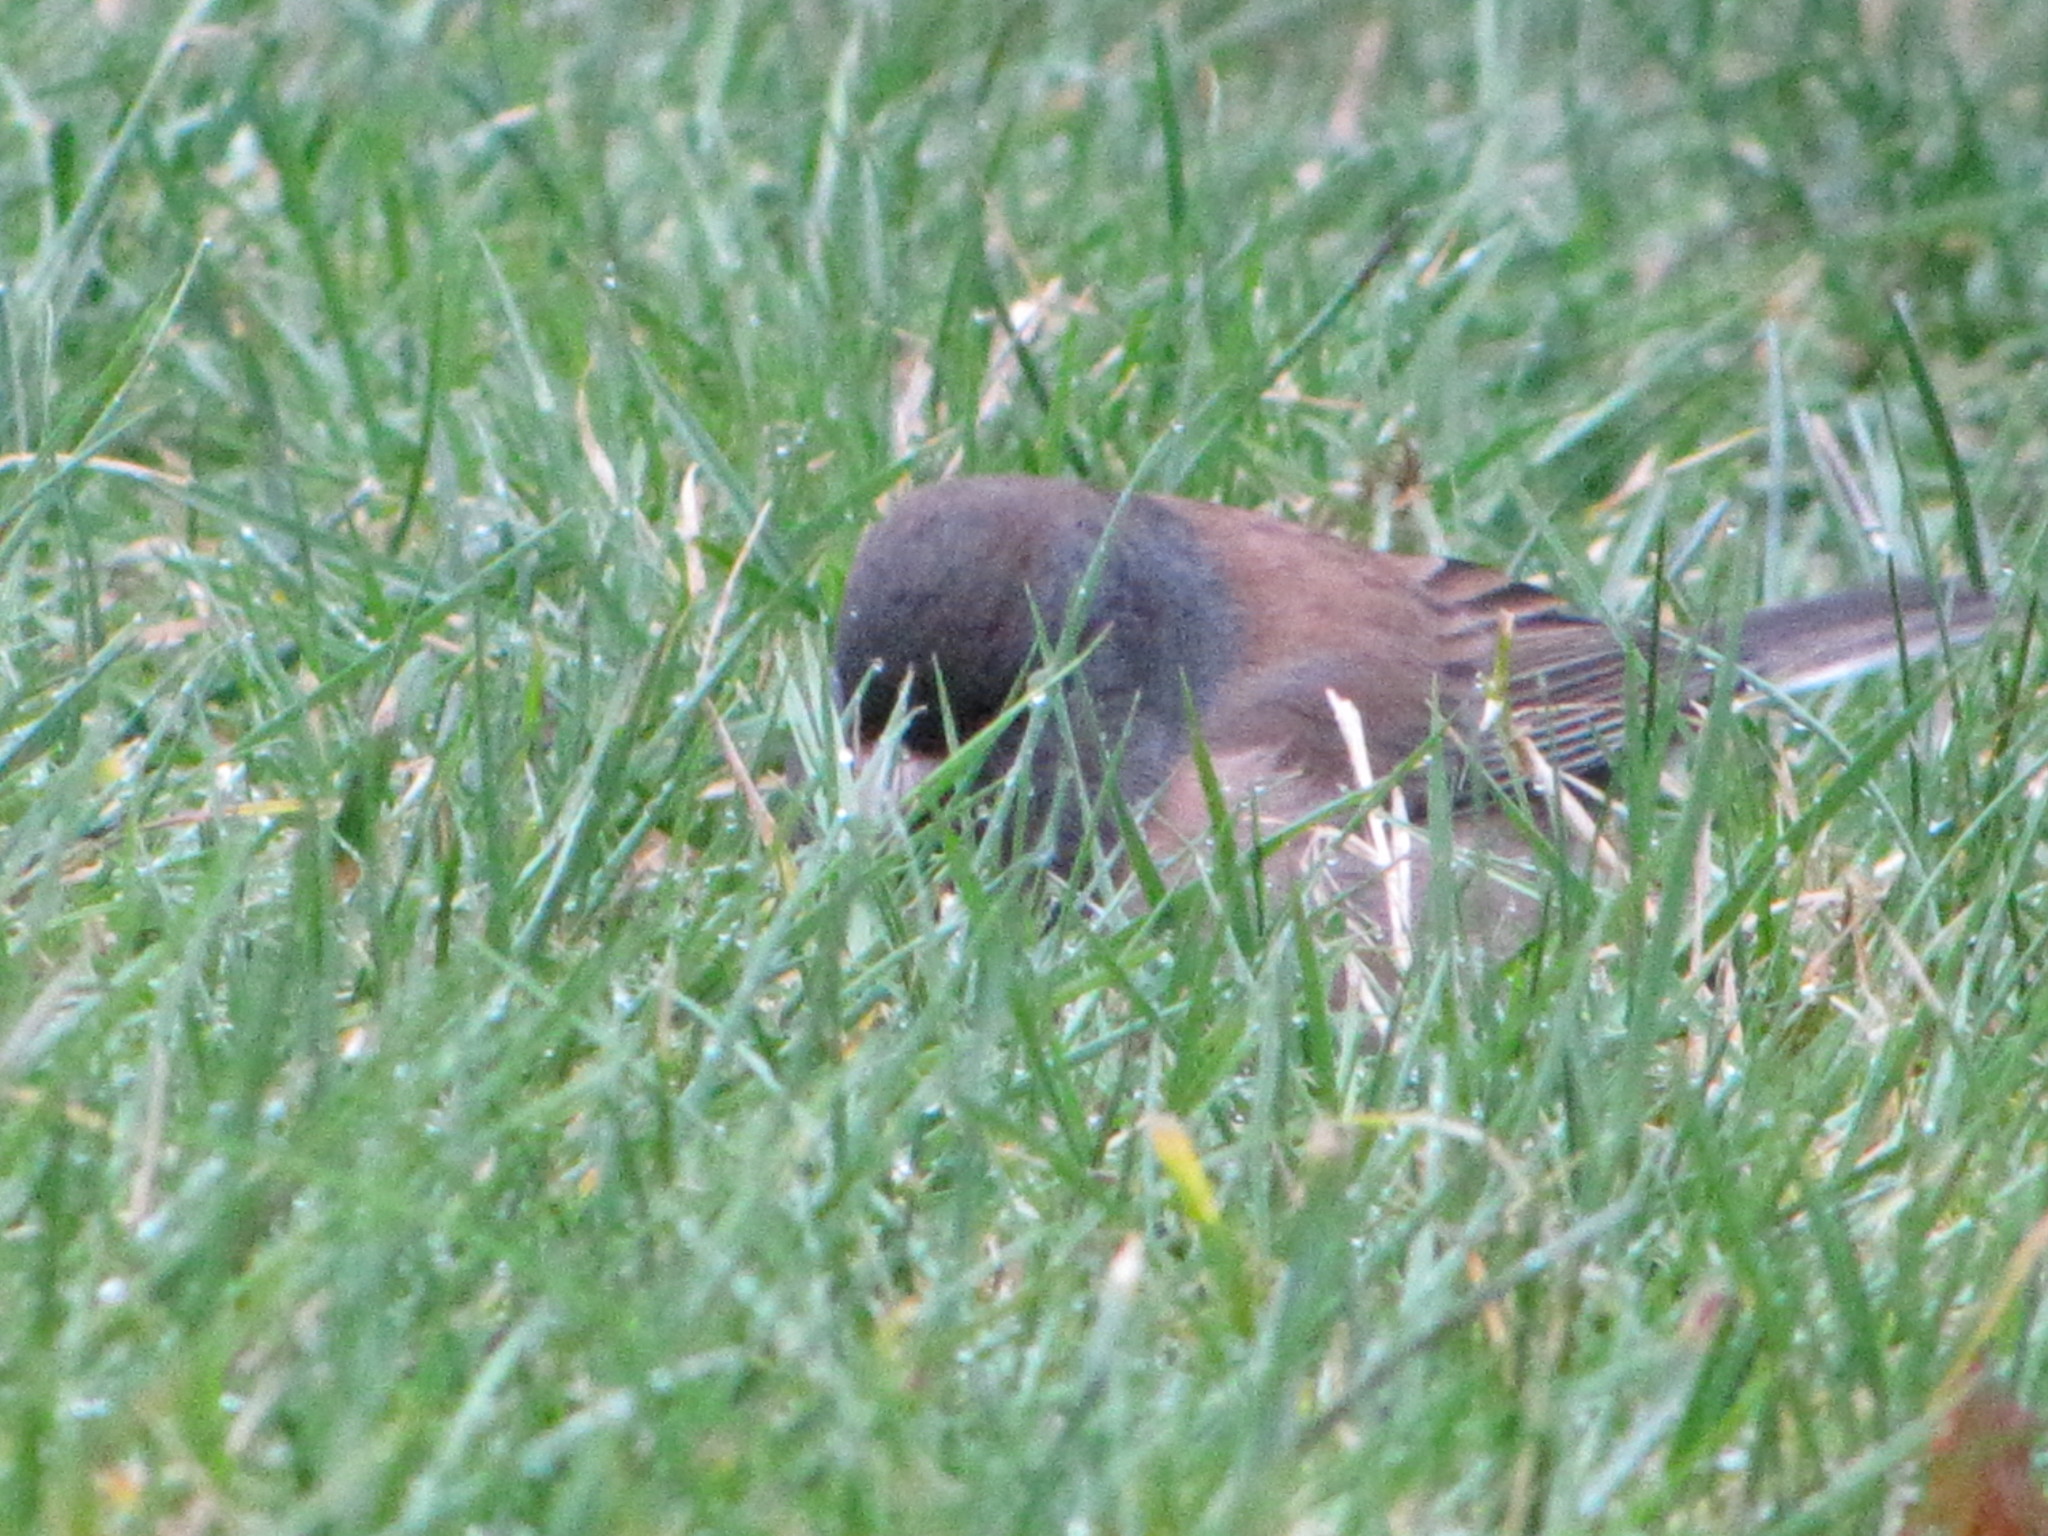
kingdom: Animalia
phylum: Chordata
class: Aves
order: Passeriformes
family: Passerellidae
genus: Junco
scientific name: Junco hyemalis
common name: Dark-eyed junco
